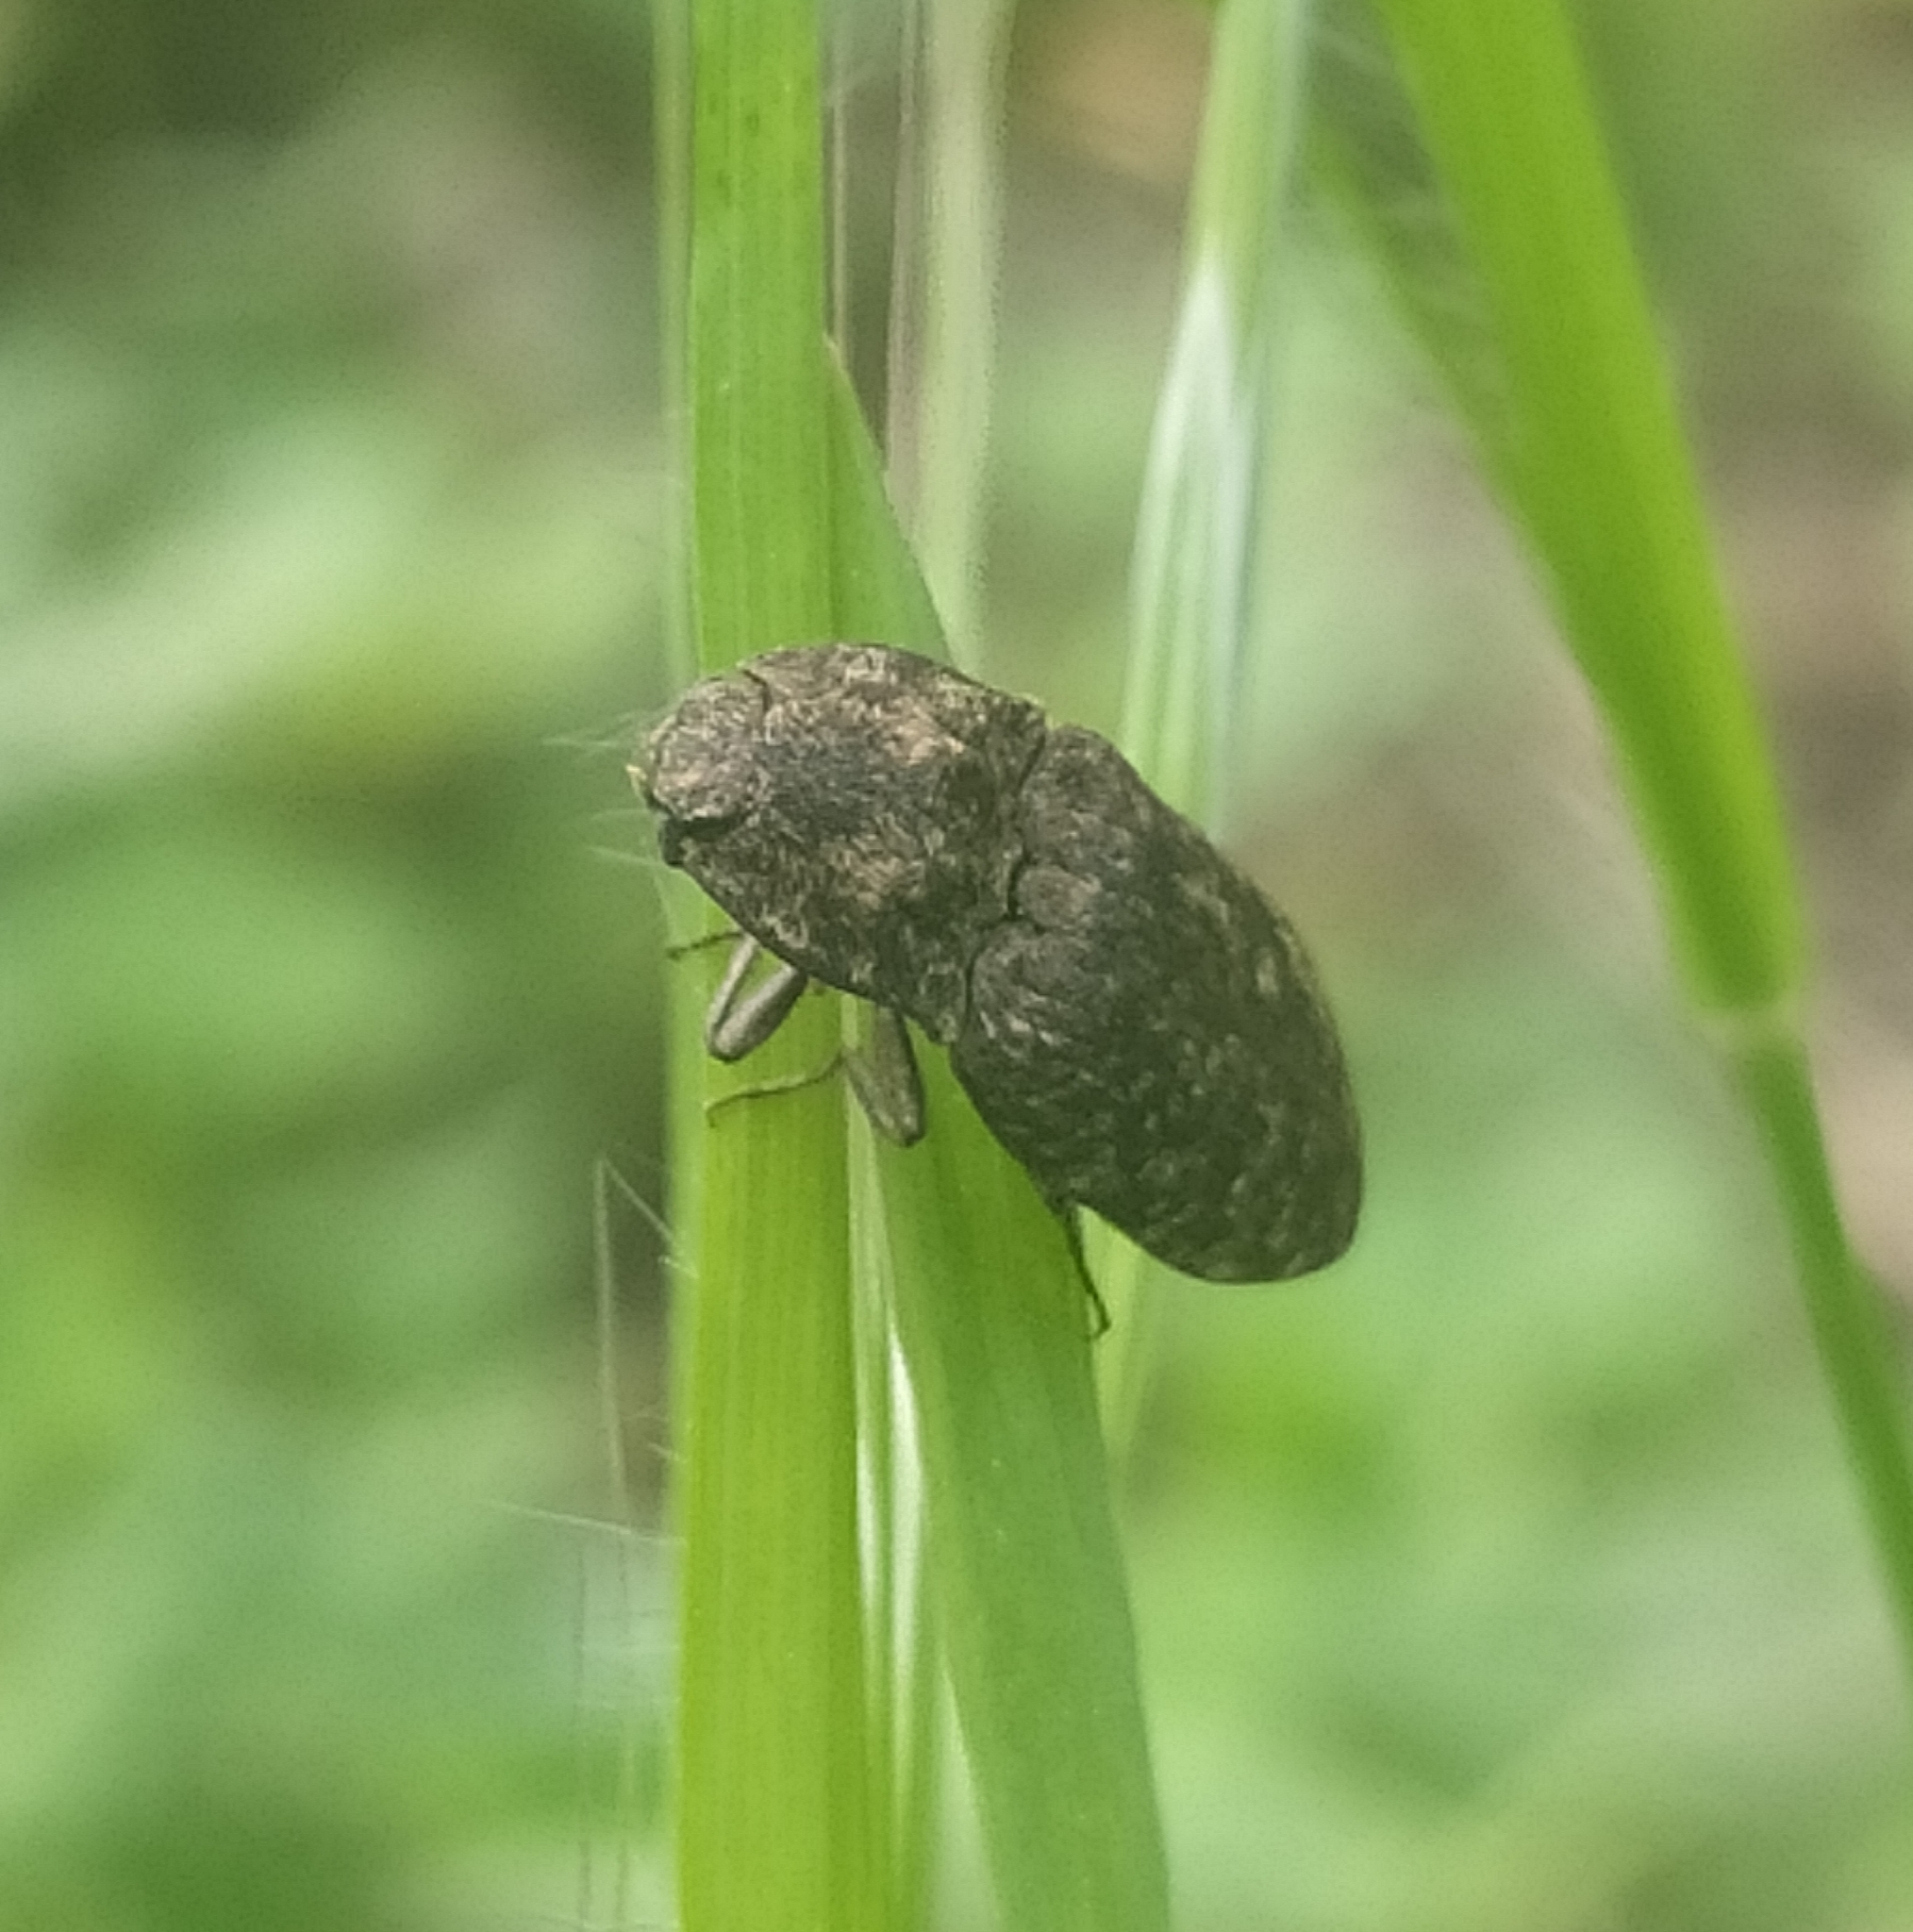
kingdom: Animalia
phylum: Arthropoda
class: Insecta
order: Coleoptera
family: Elateridae
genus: Agrypnus
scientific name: Agrypnus murinus
